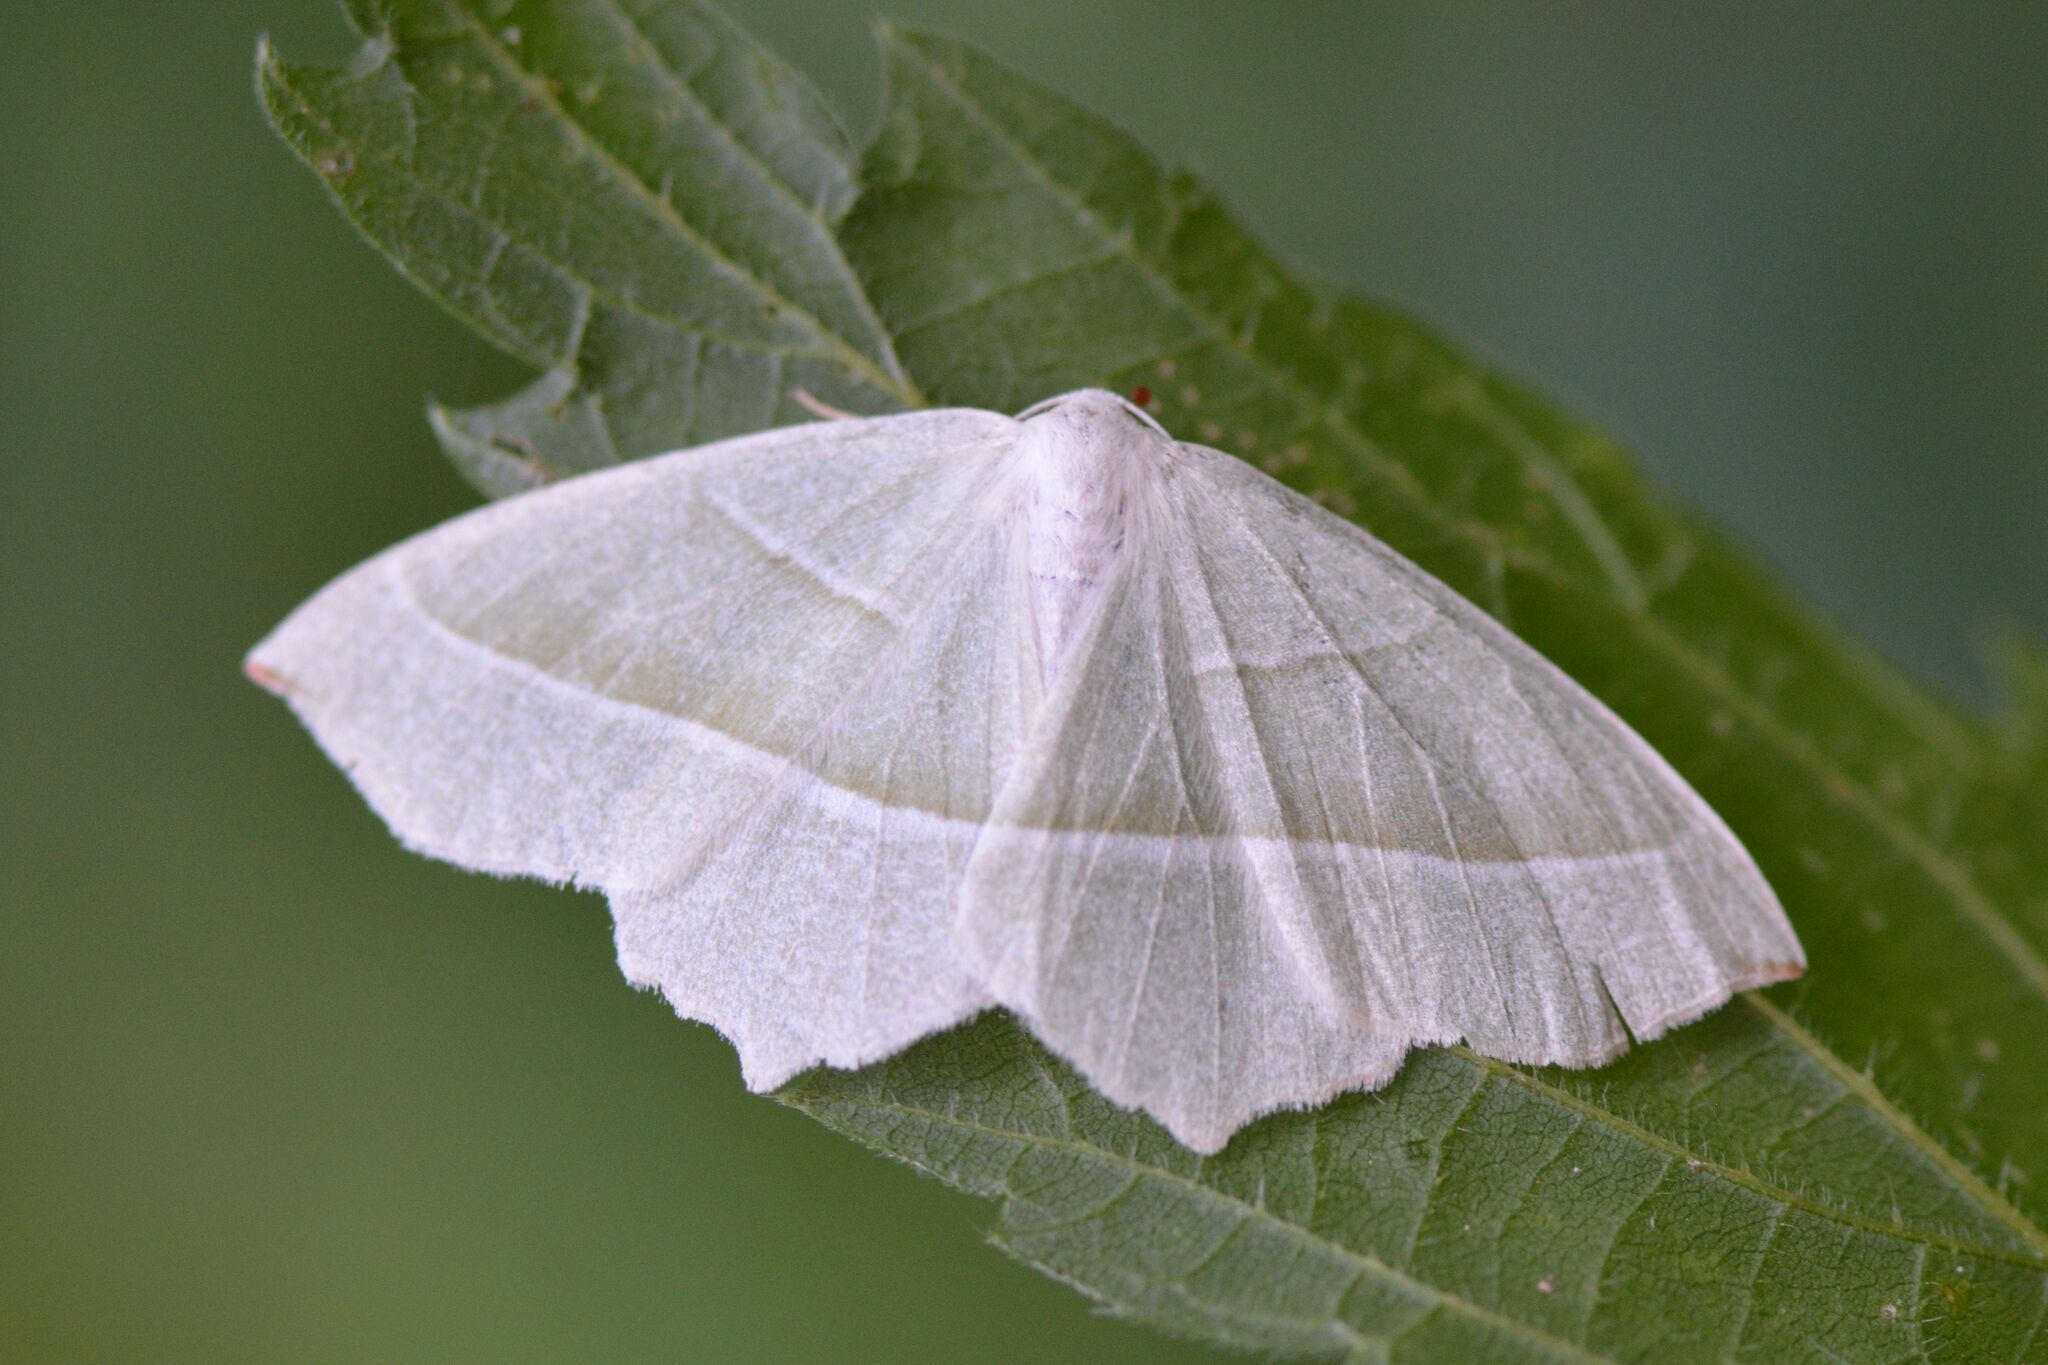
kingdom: Animalia
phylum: Arthropoda
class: Insecta
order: Lepidoptera
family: Geometridae
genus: Campaea
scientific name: Campaea margaritaria
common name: Light emerald
